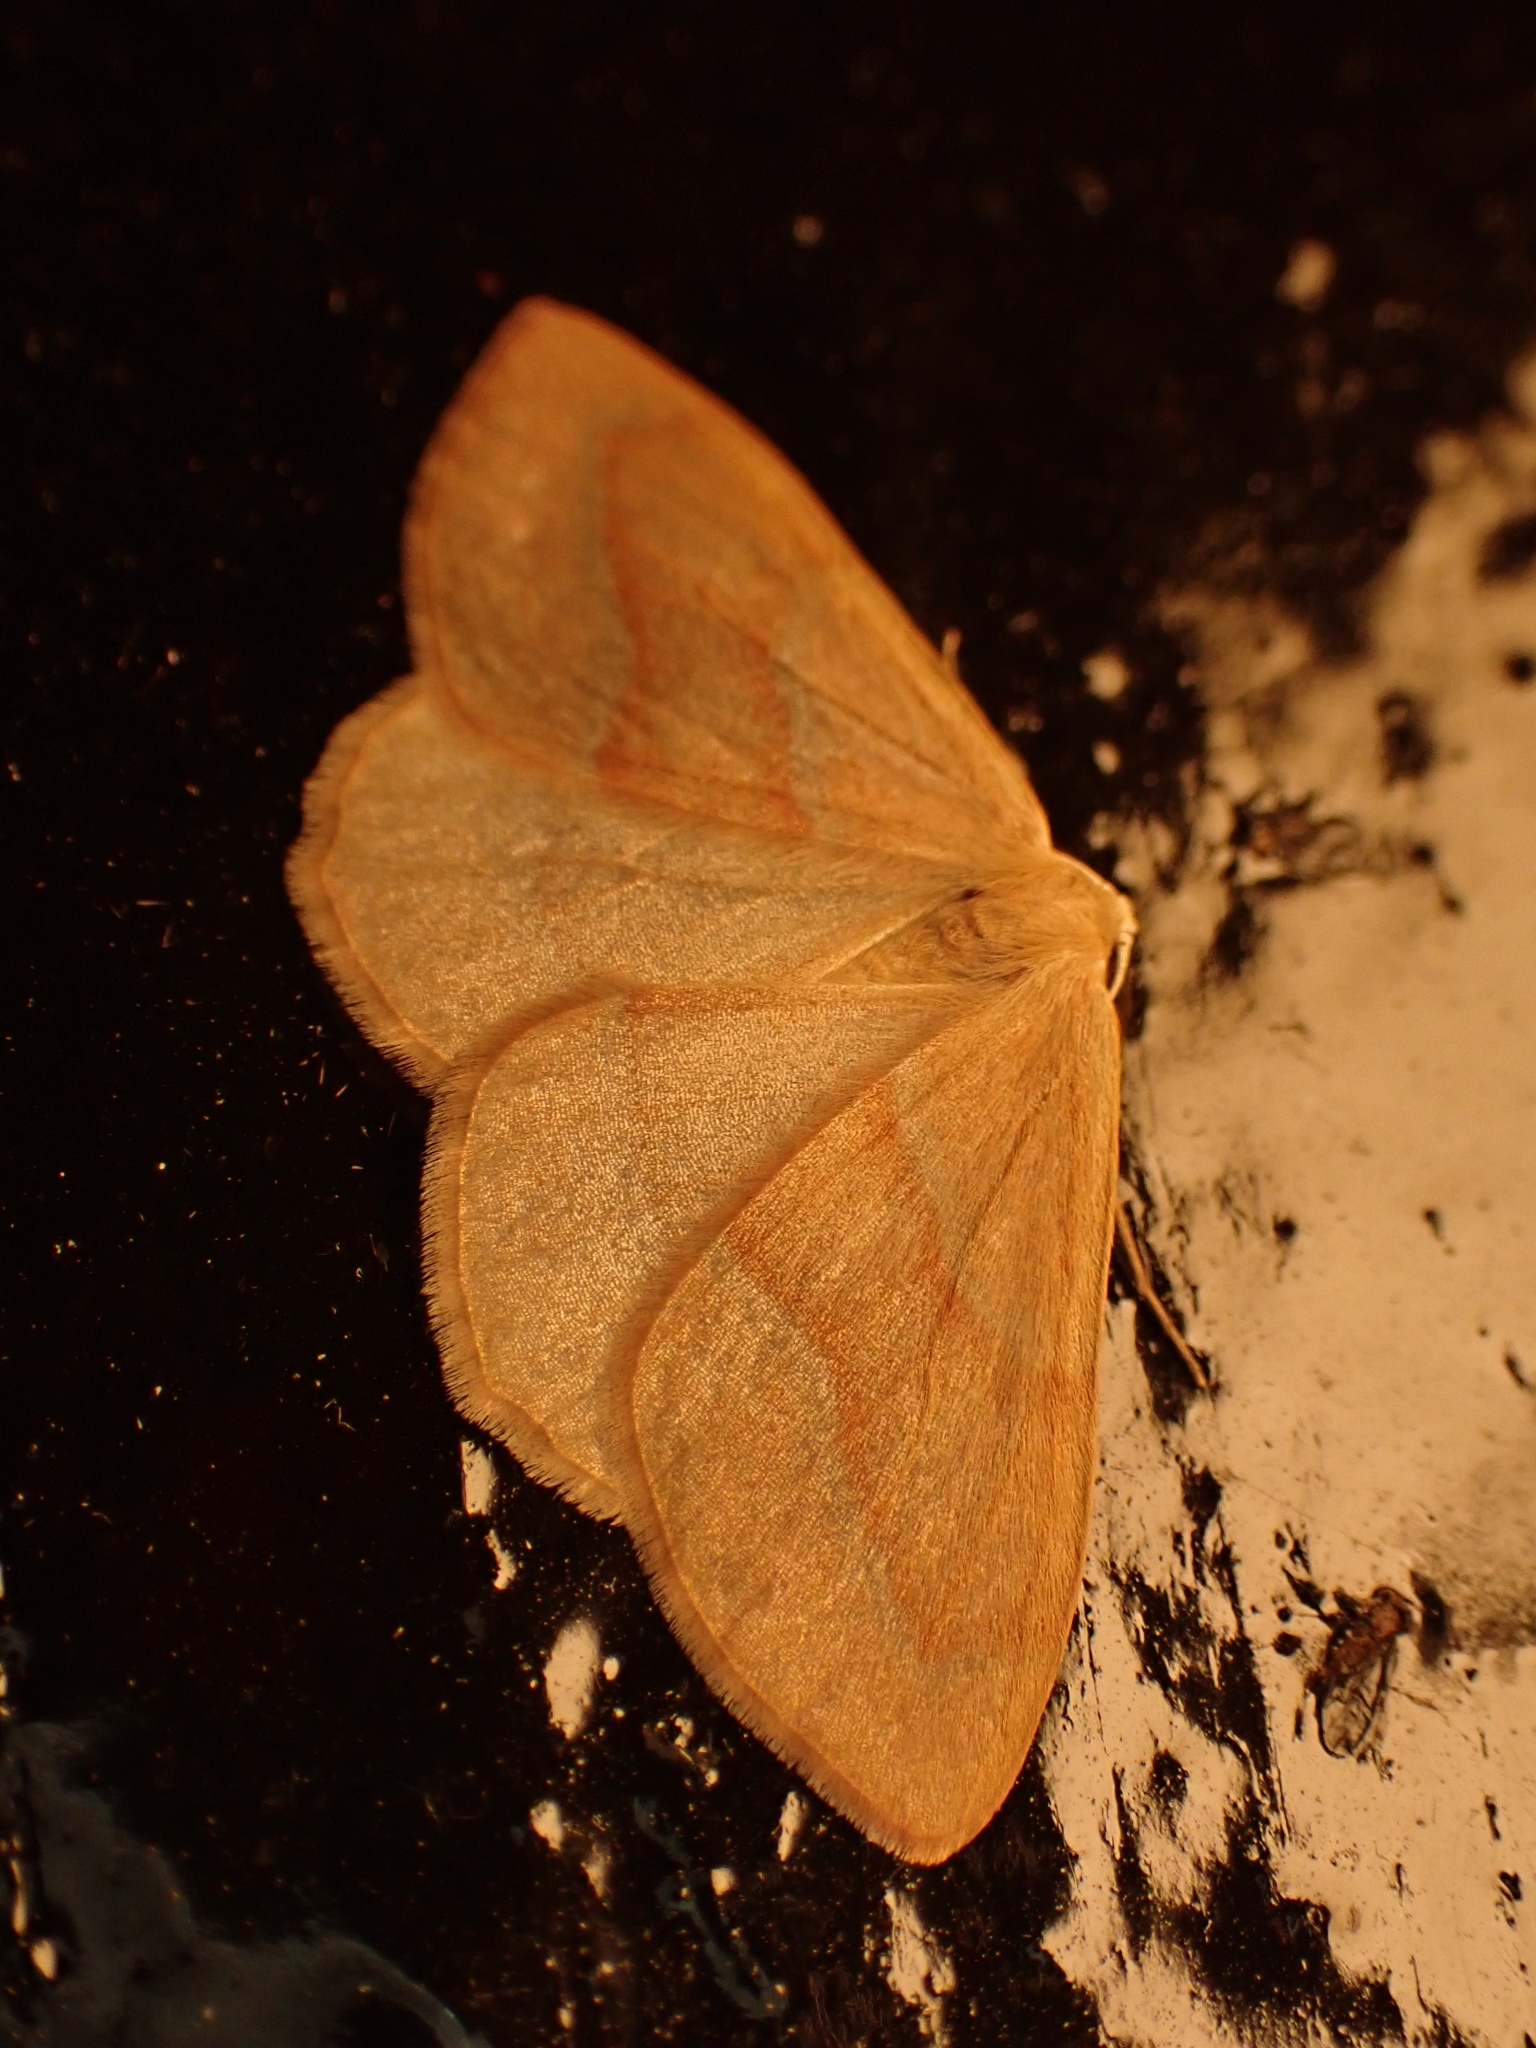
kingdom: Animalia
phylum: Arthropoda
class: Insecta
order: Lepidoptera
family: Geometridae
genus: Hylaea
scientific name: Hylaea fasciaria
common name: Barred red
